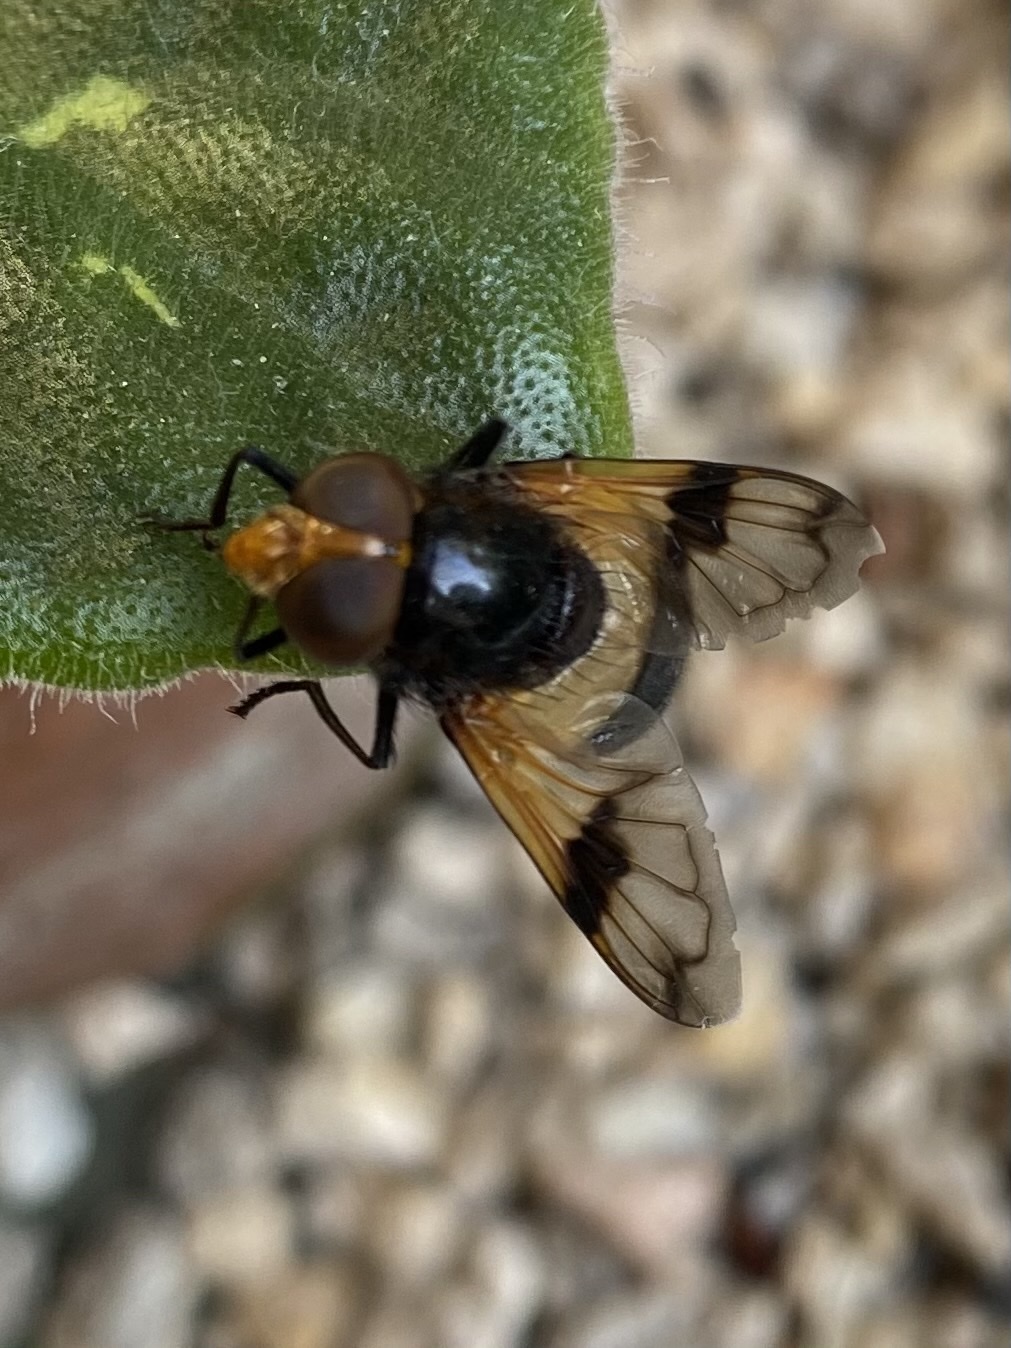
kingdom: Animalia
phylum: Arthropoda
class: Insecta
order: Diptera
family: Syrphidae
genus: Volucella
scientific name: Volucella pellucens
